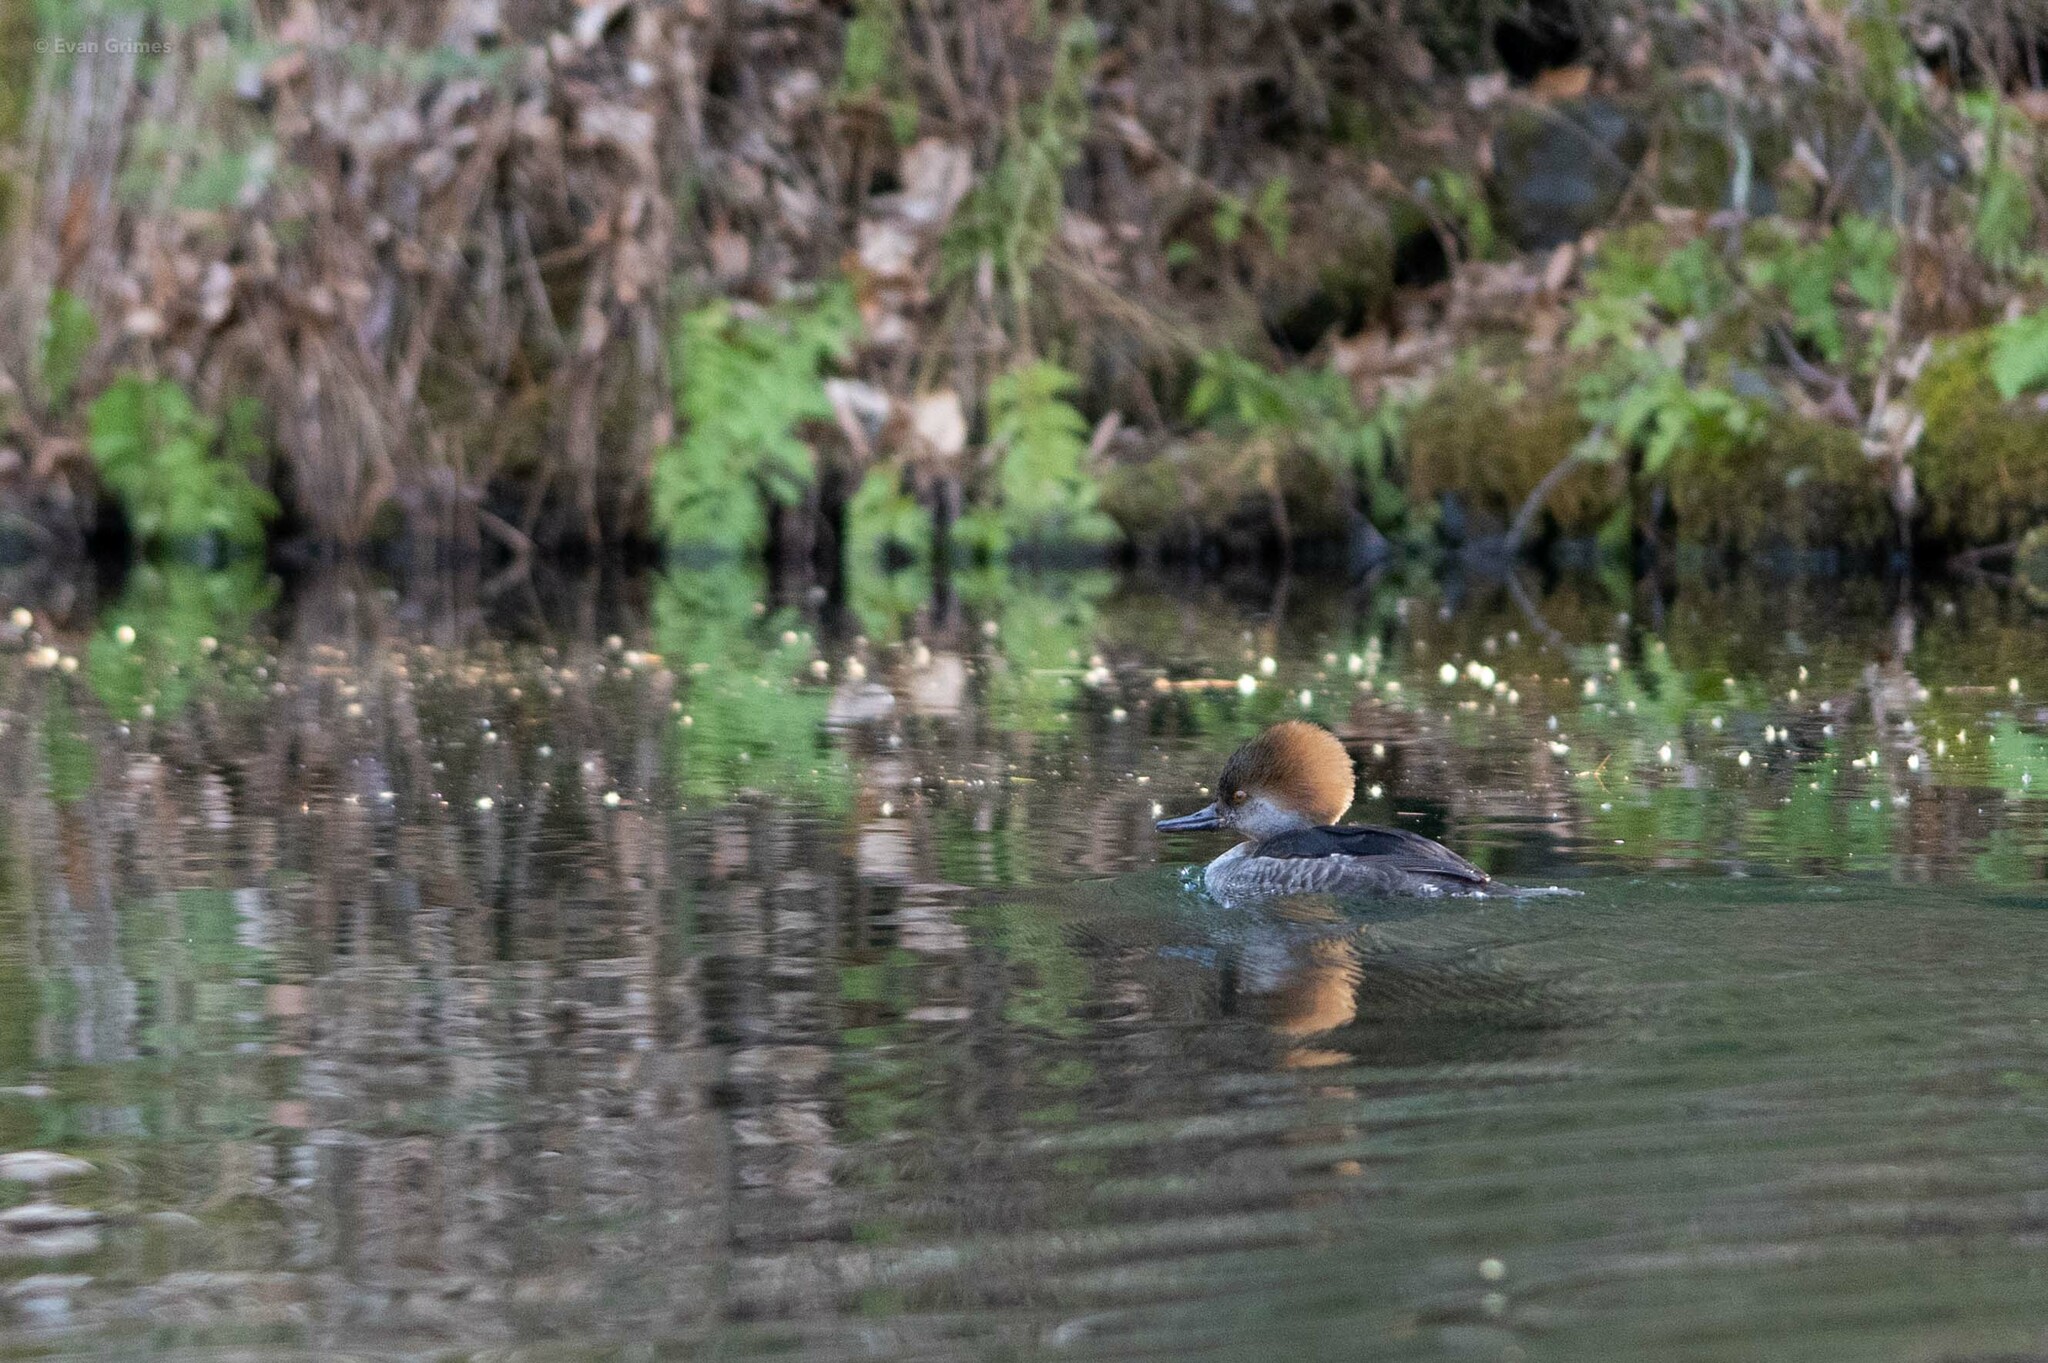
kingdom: Animalia
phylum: Chordata
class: Aves
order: Anseriformes
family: Anatidae
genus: Lophodytes
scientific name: Lophodytes cucullatus
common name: Hooded merganser
